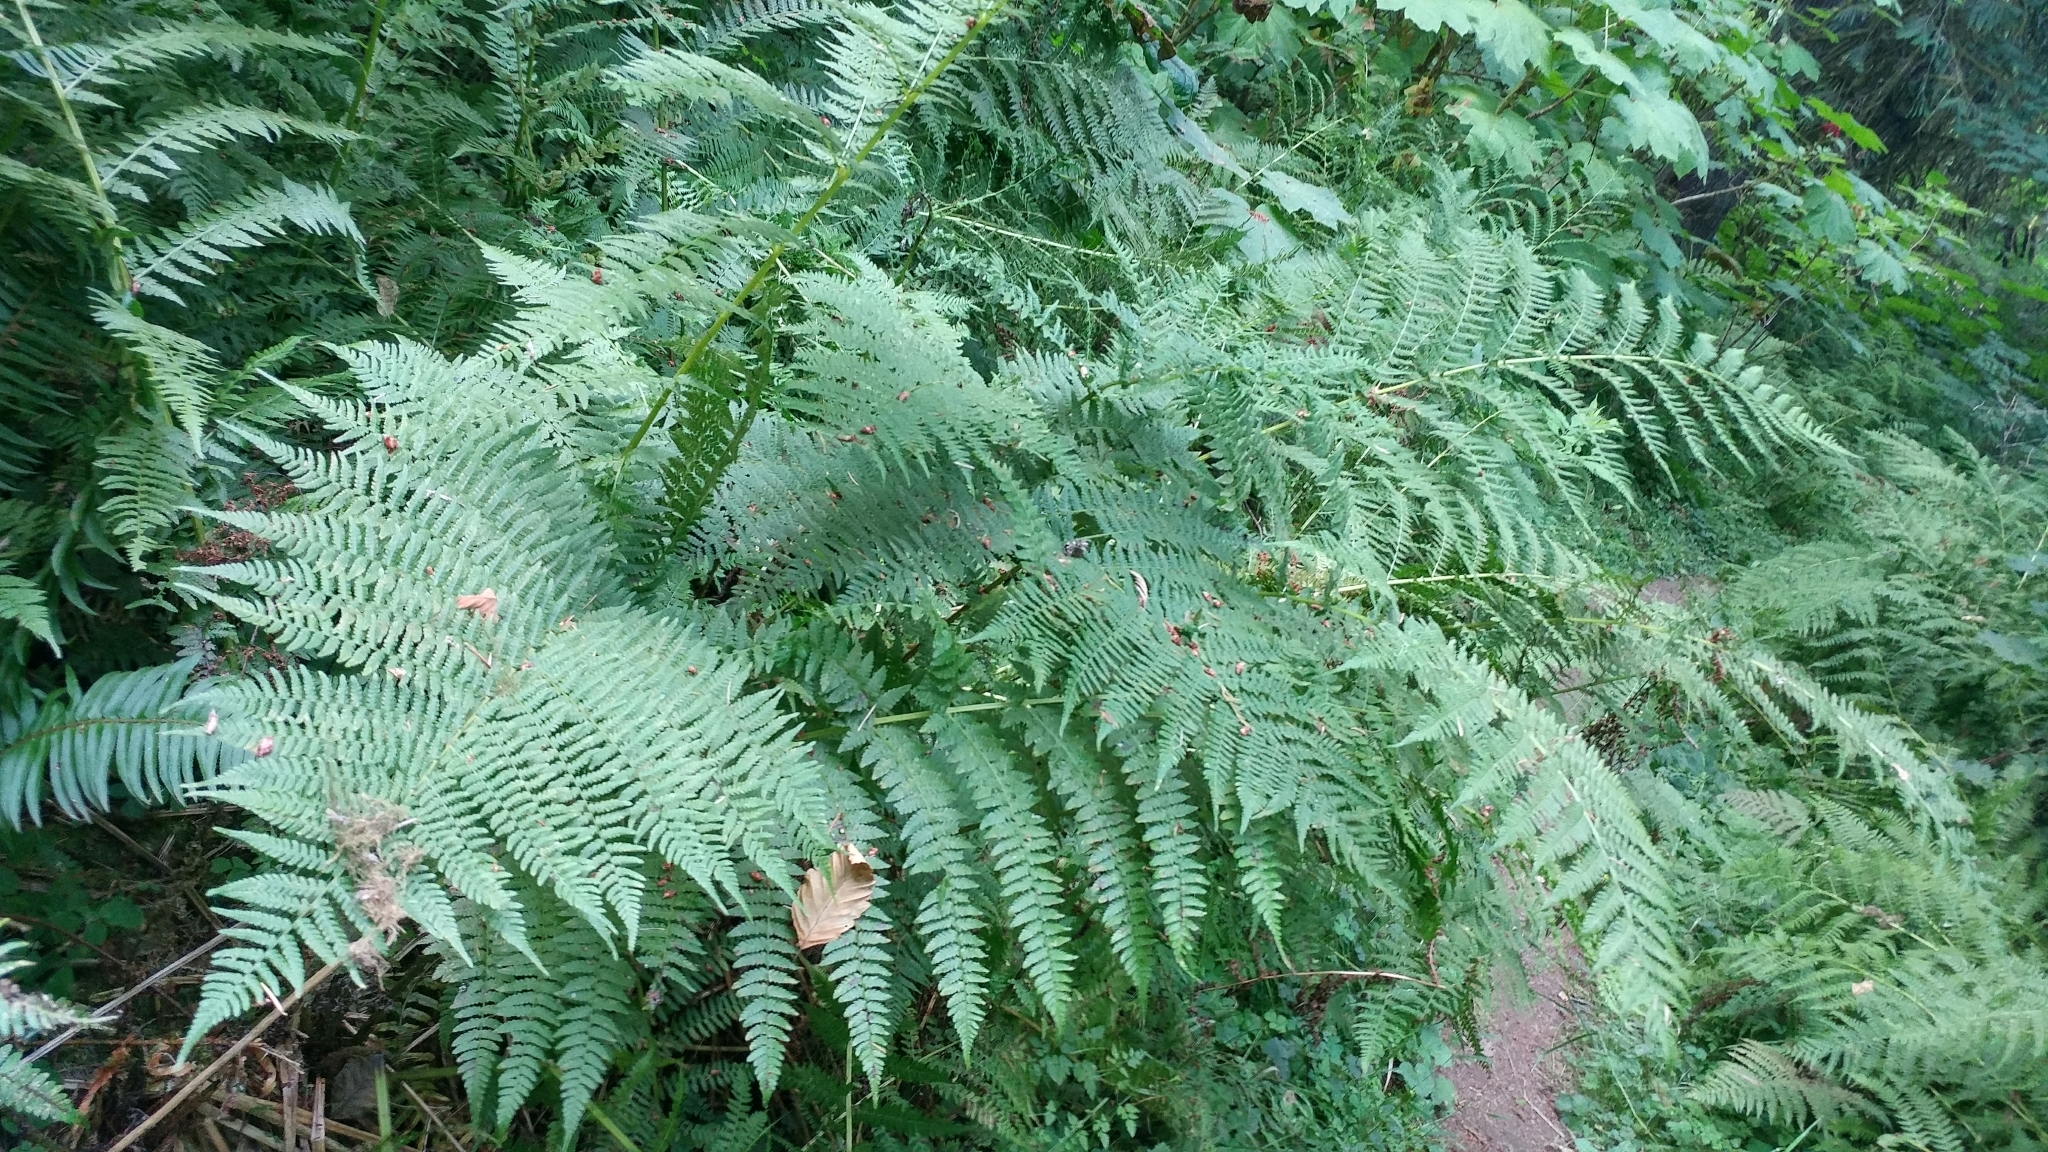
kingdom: Plantae
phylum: Tracheophyta
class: Polypodiopsida
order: Polypodiales
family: Athyriaceae
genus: Athyrium
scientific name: Athyrium filix-femina
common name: Lady fern
